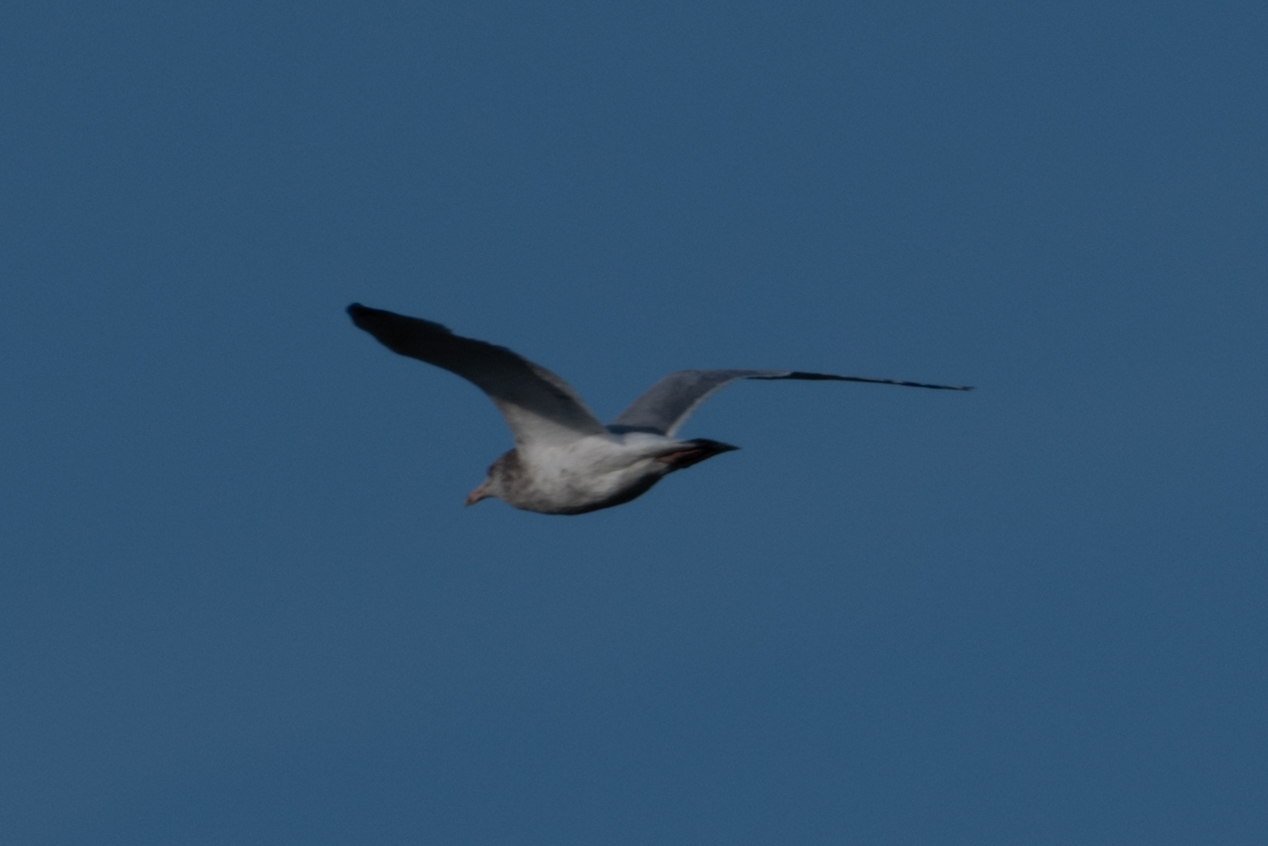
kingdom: Animalia
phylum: Chordata
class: Aves
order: Charadriiformes
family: Laridae
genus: Larus
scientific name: Larus argentatus
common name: Herring gull
